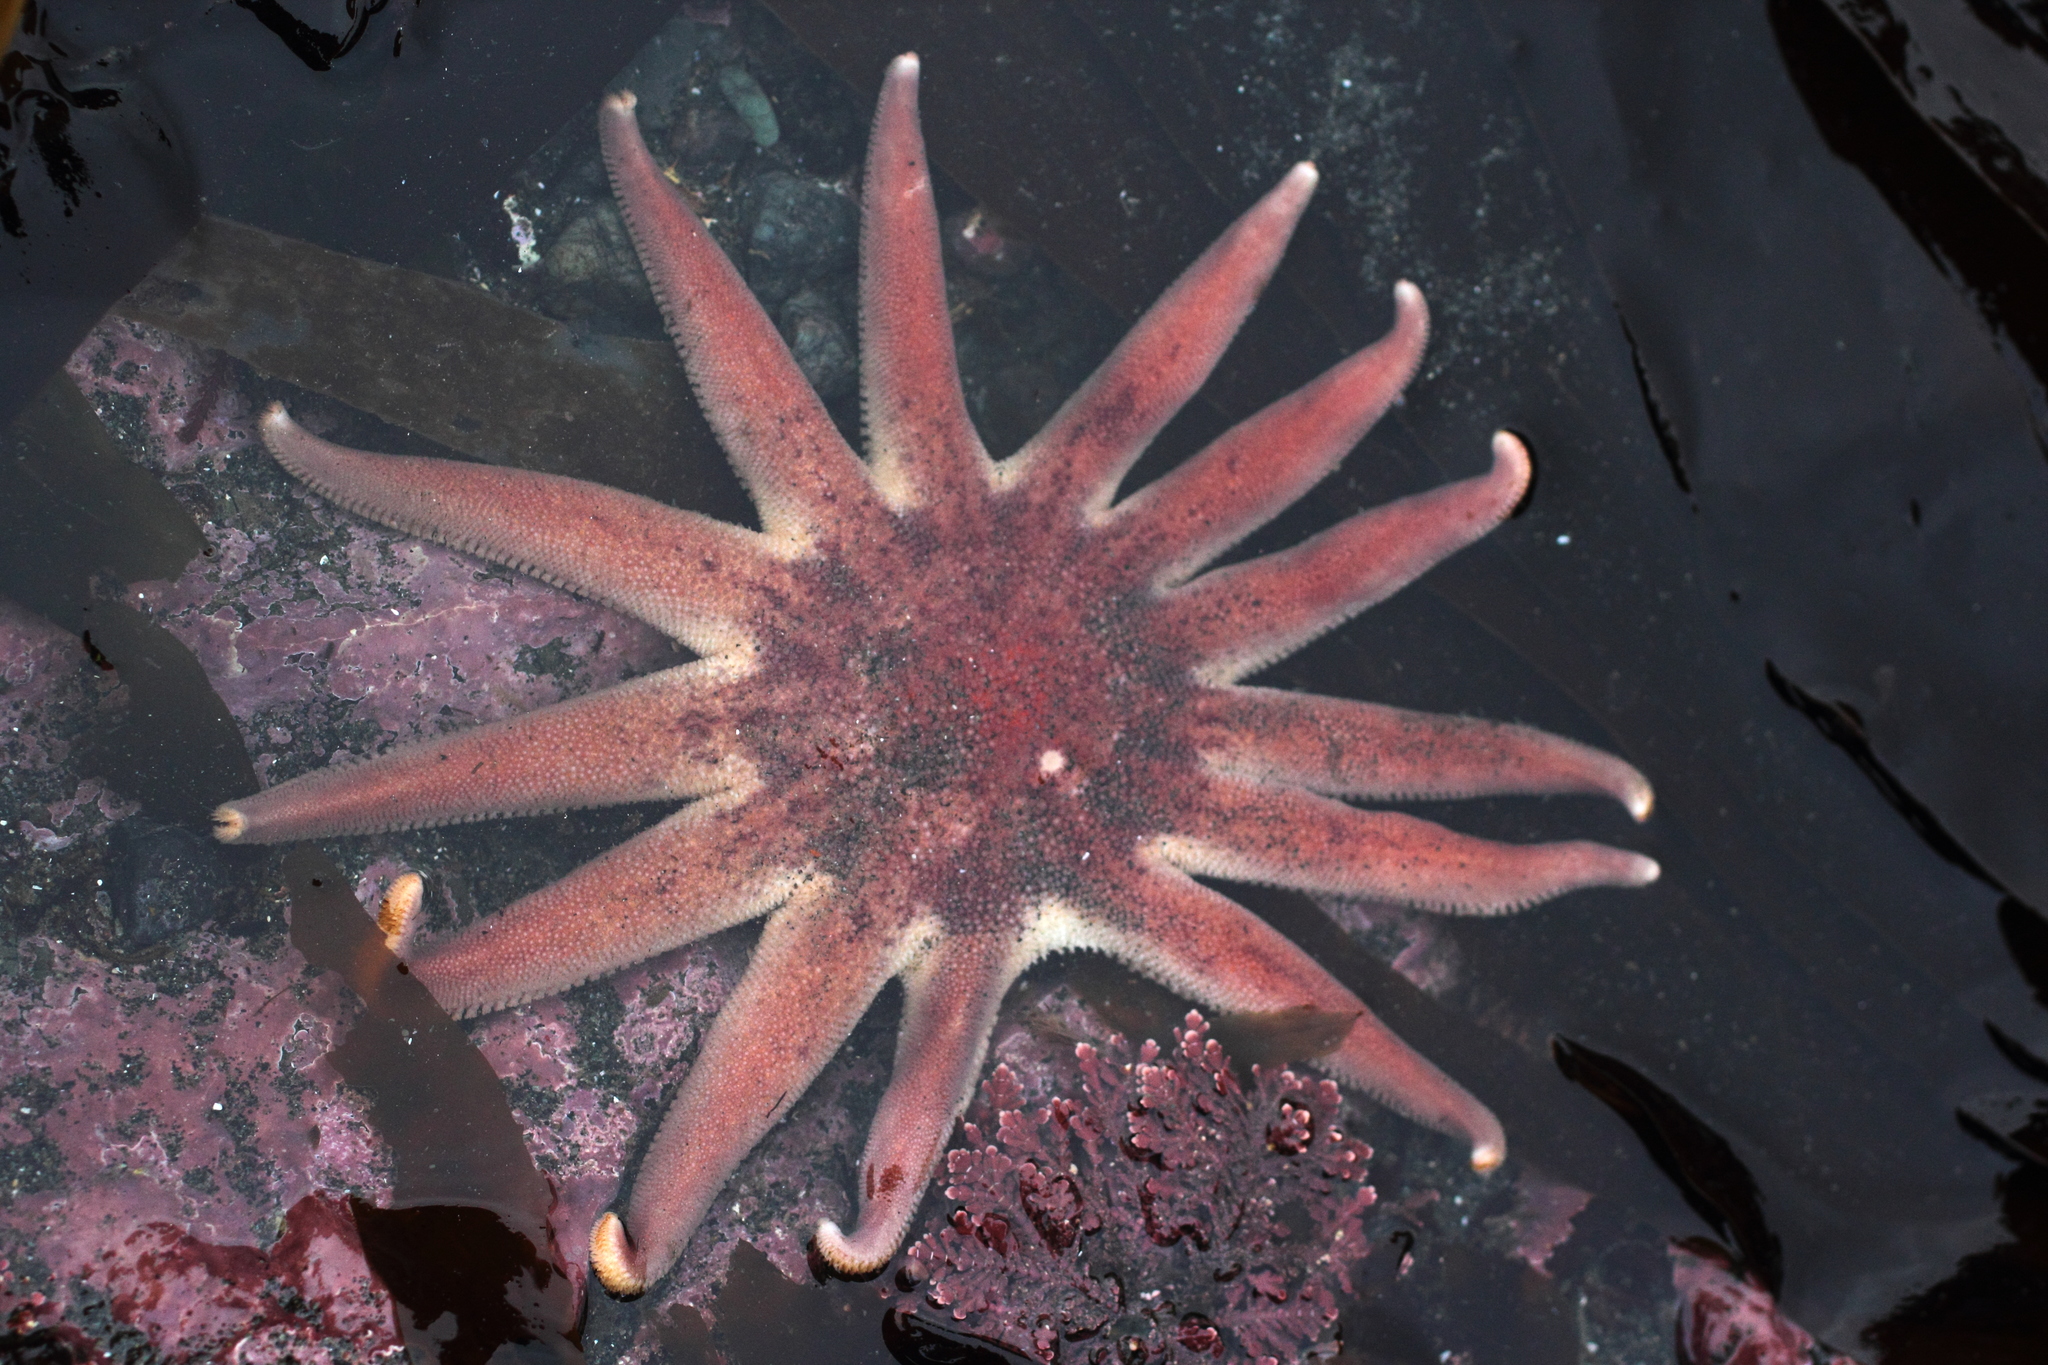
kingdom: Animalia
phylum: Echinodermata
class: Asteroidea
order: Valvatida
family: Solasteridae
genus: Solaster
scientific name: Solaster dawsoni
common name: Morning sun star
